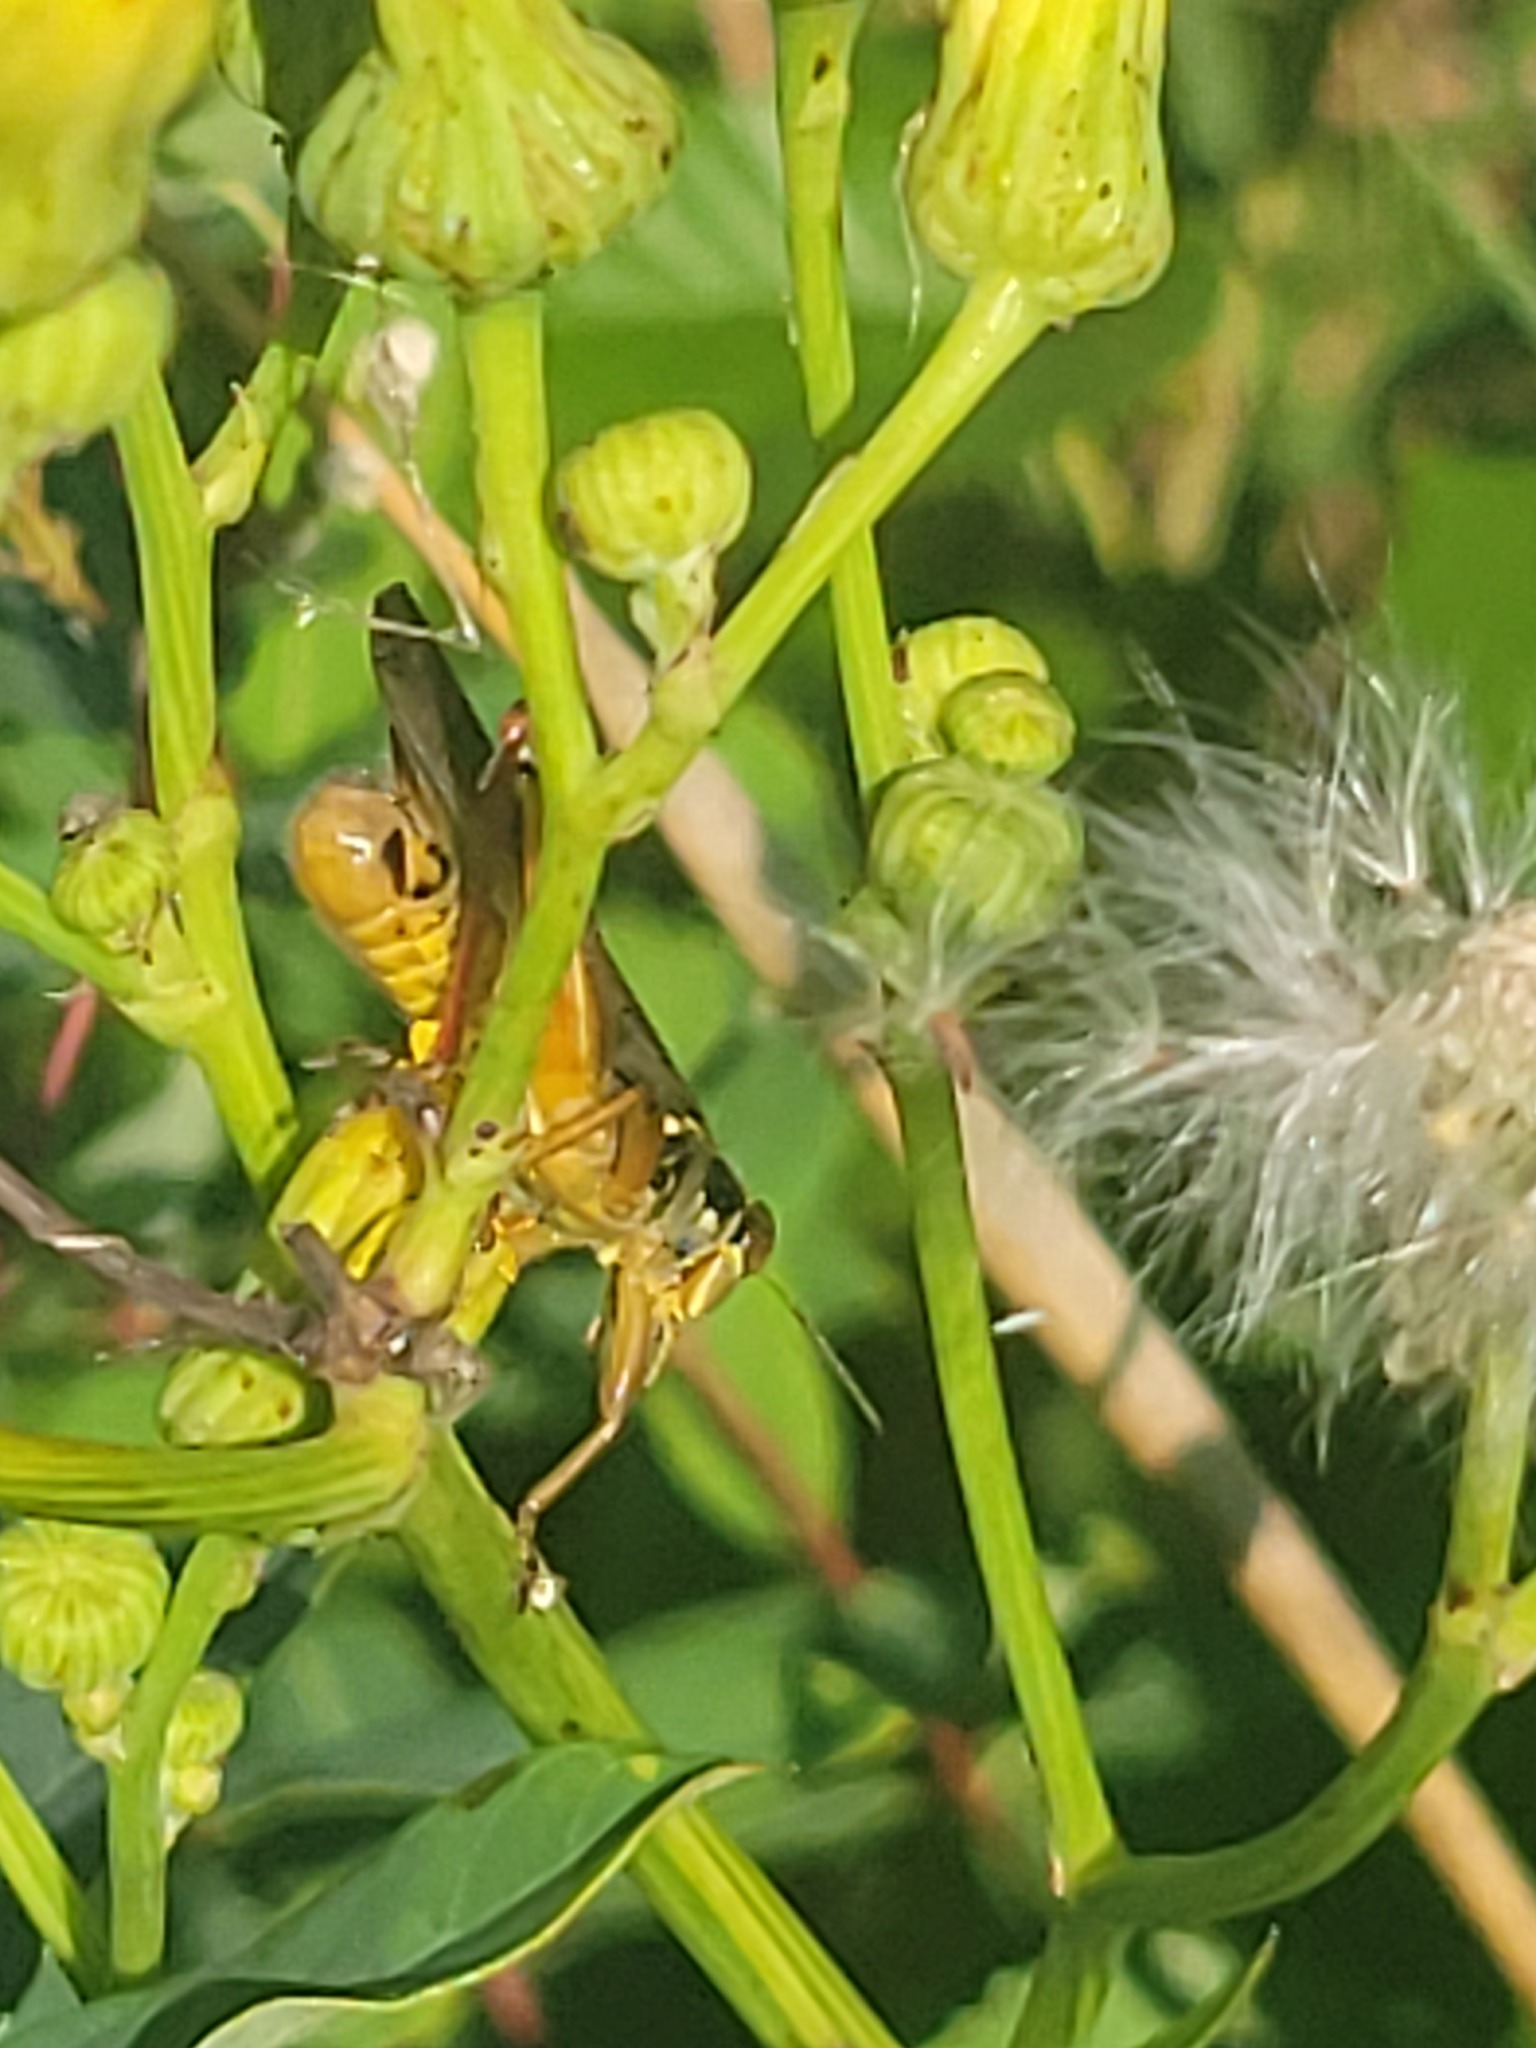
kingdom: Animalia
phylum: Arthropoda
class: Insecta
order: Orthoptera
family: Acrididae
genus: Melanoplus
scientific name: Melanoplus femurrubrum
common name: Red-legged grasshopper
